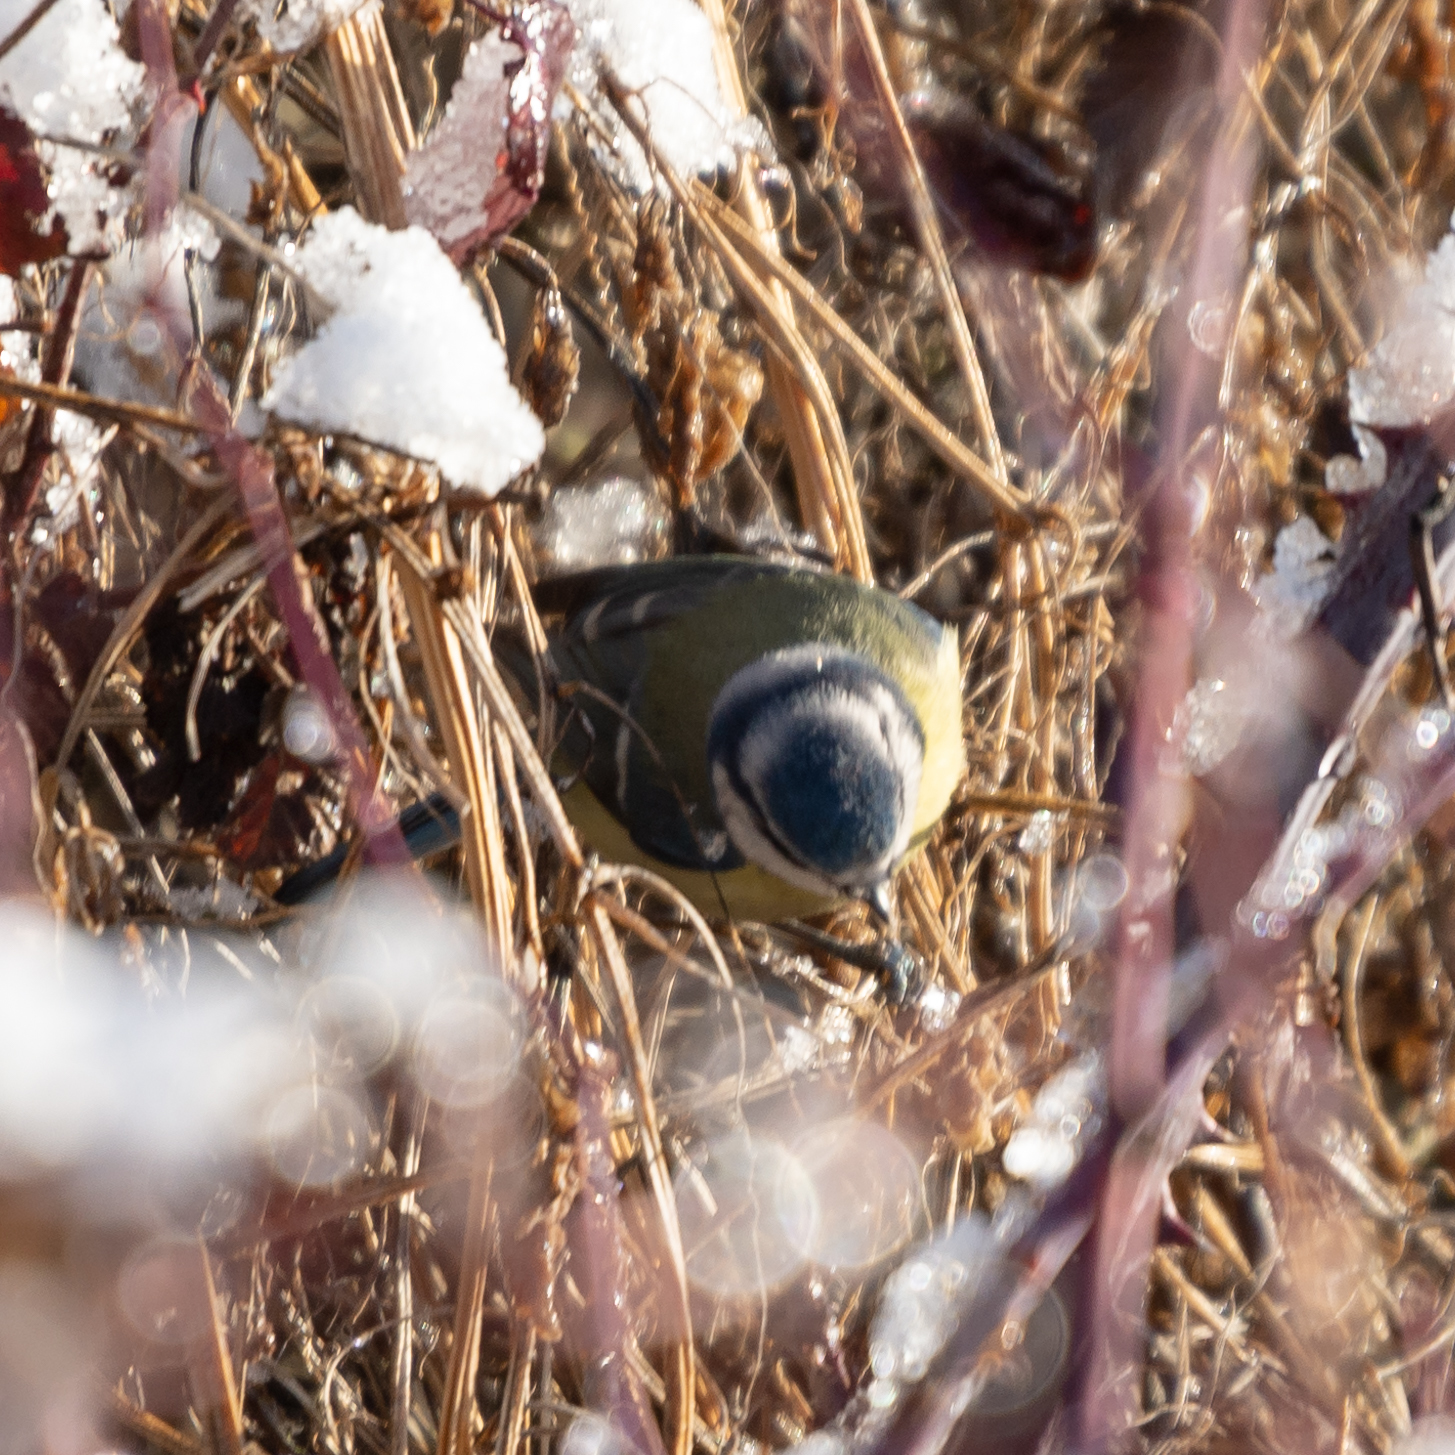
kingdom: Animalia
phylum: Chordata
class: Aves
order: Passeriformes
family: Paridae
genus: Cyanistes
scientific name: Cyanistes caeruleus
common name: Eurasian blue tit
